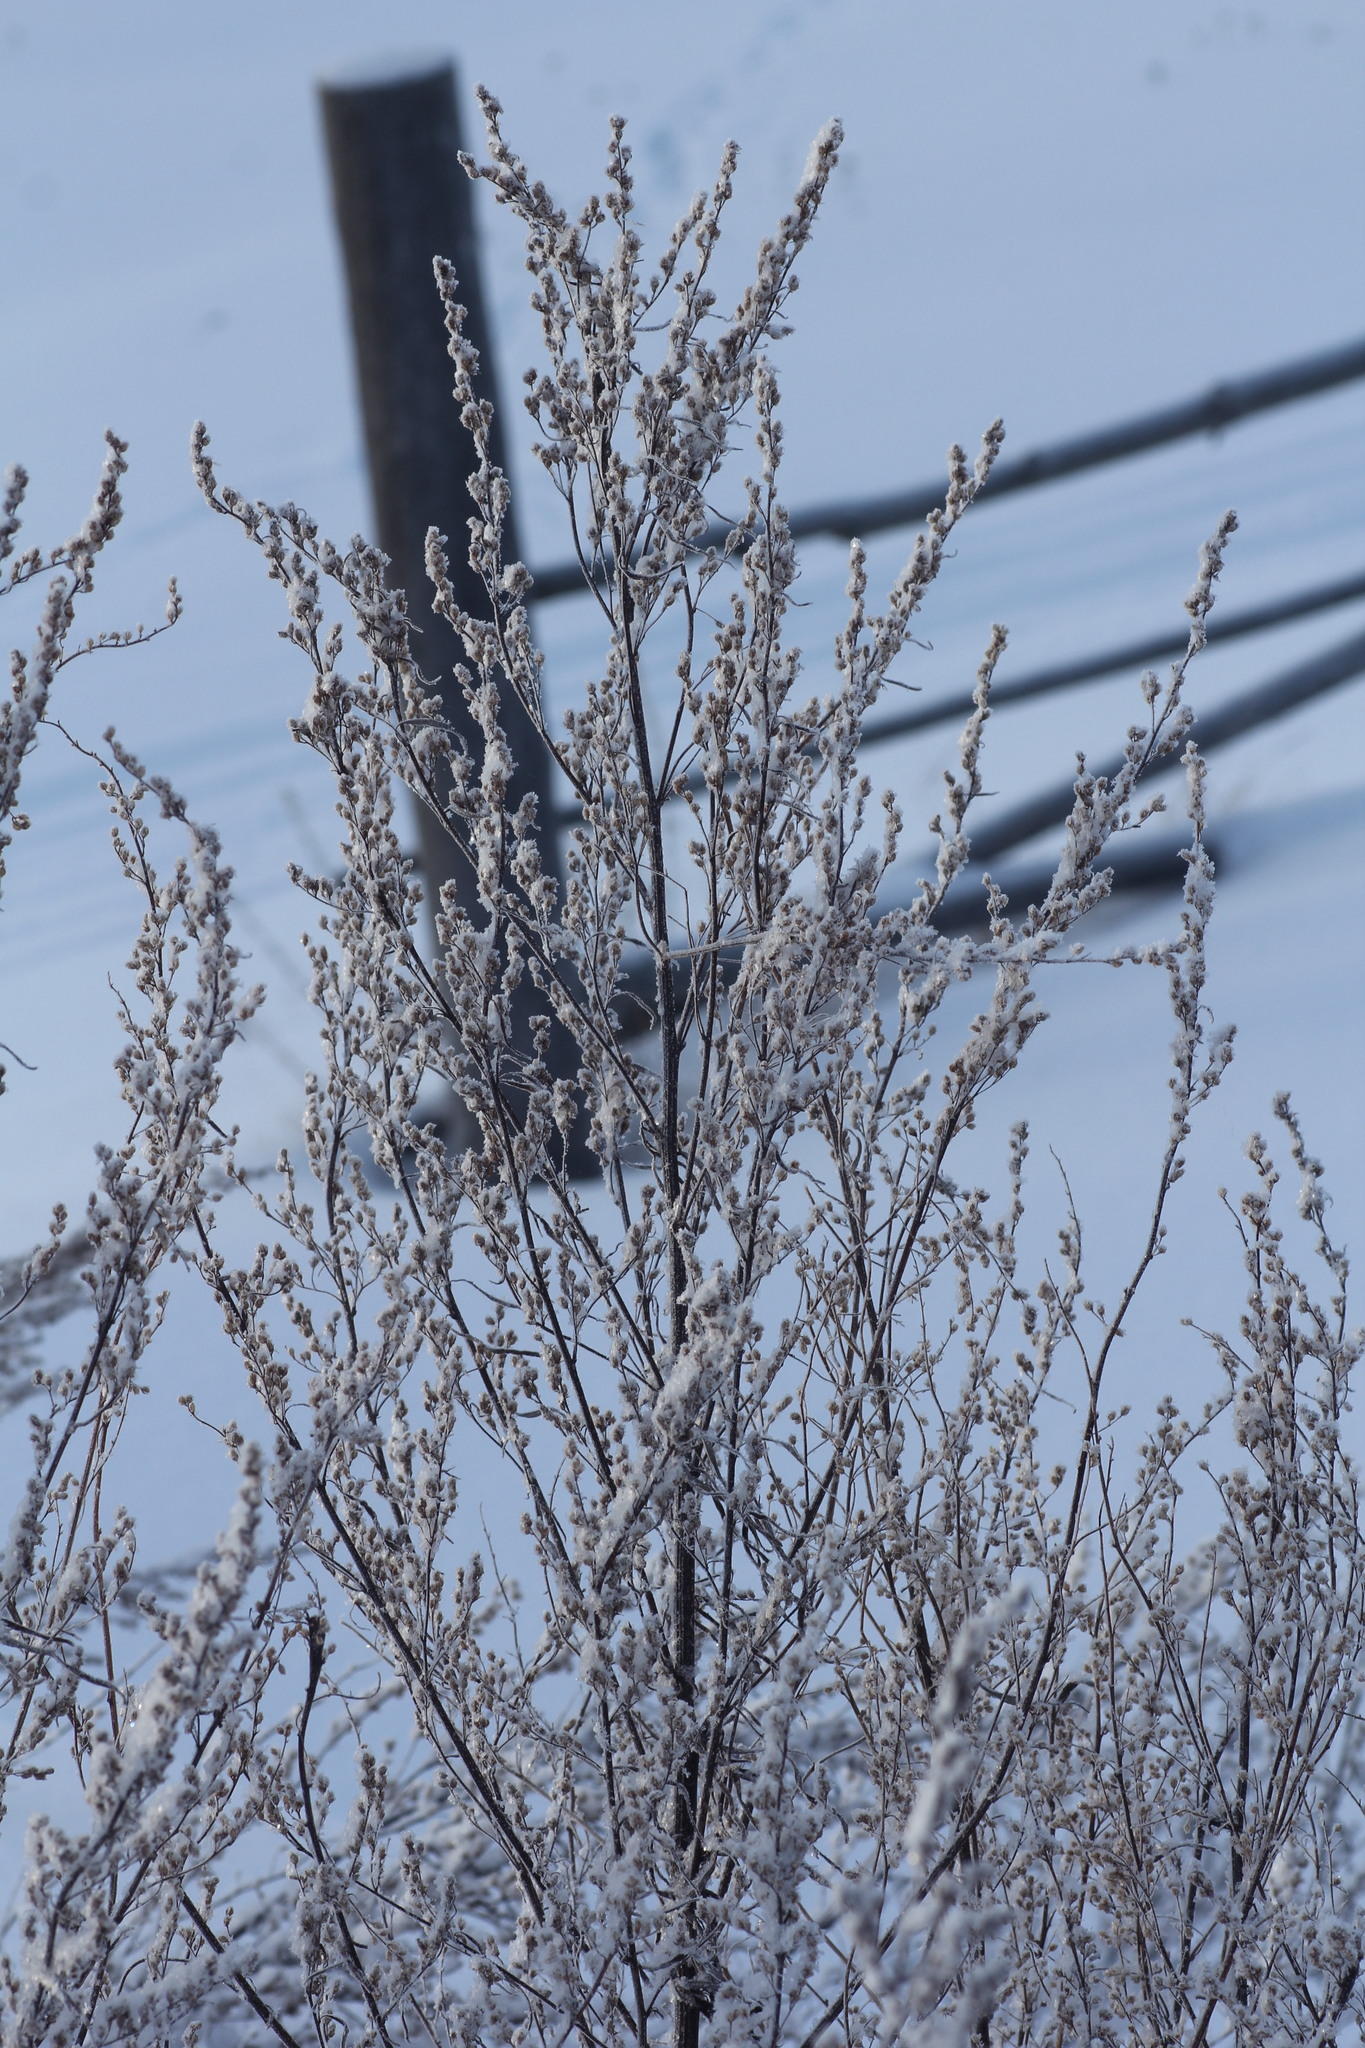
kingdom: Plantae
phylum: Tracheophyta
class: Magnoliopsida
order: Asterales
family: Asteraceae
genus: Artemisia
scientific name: Artemisia vulgaris
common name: Mugwort
